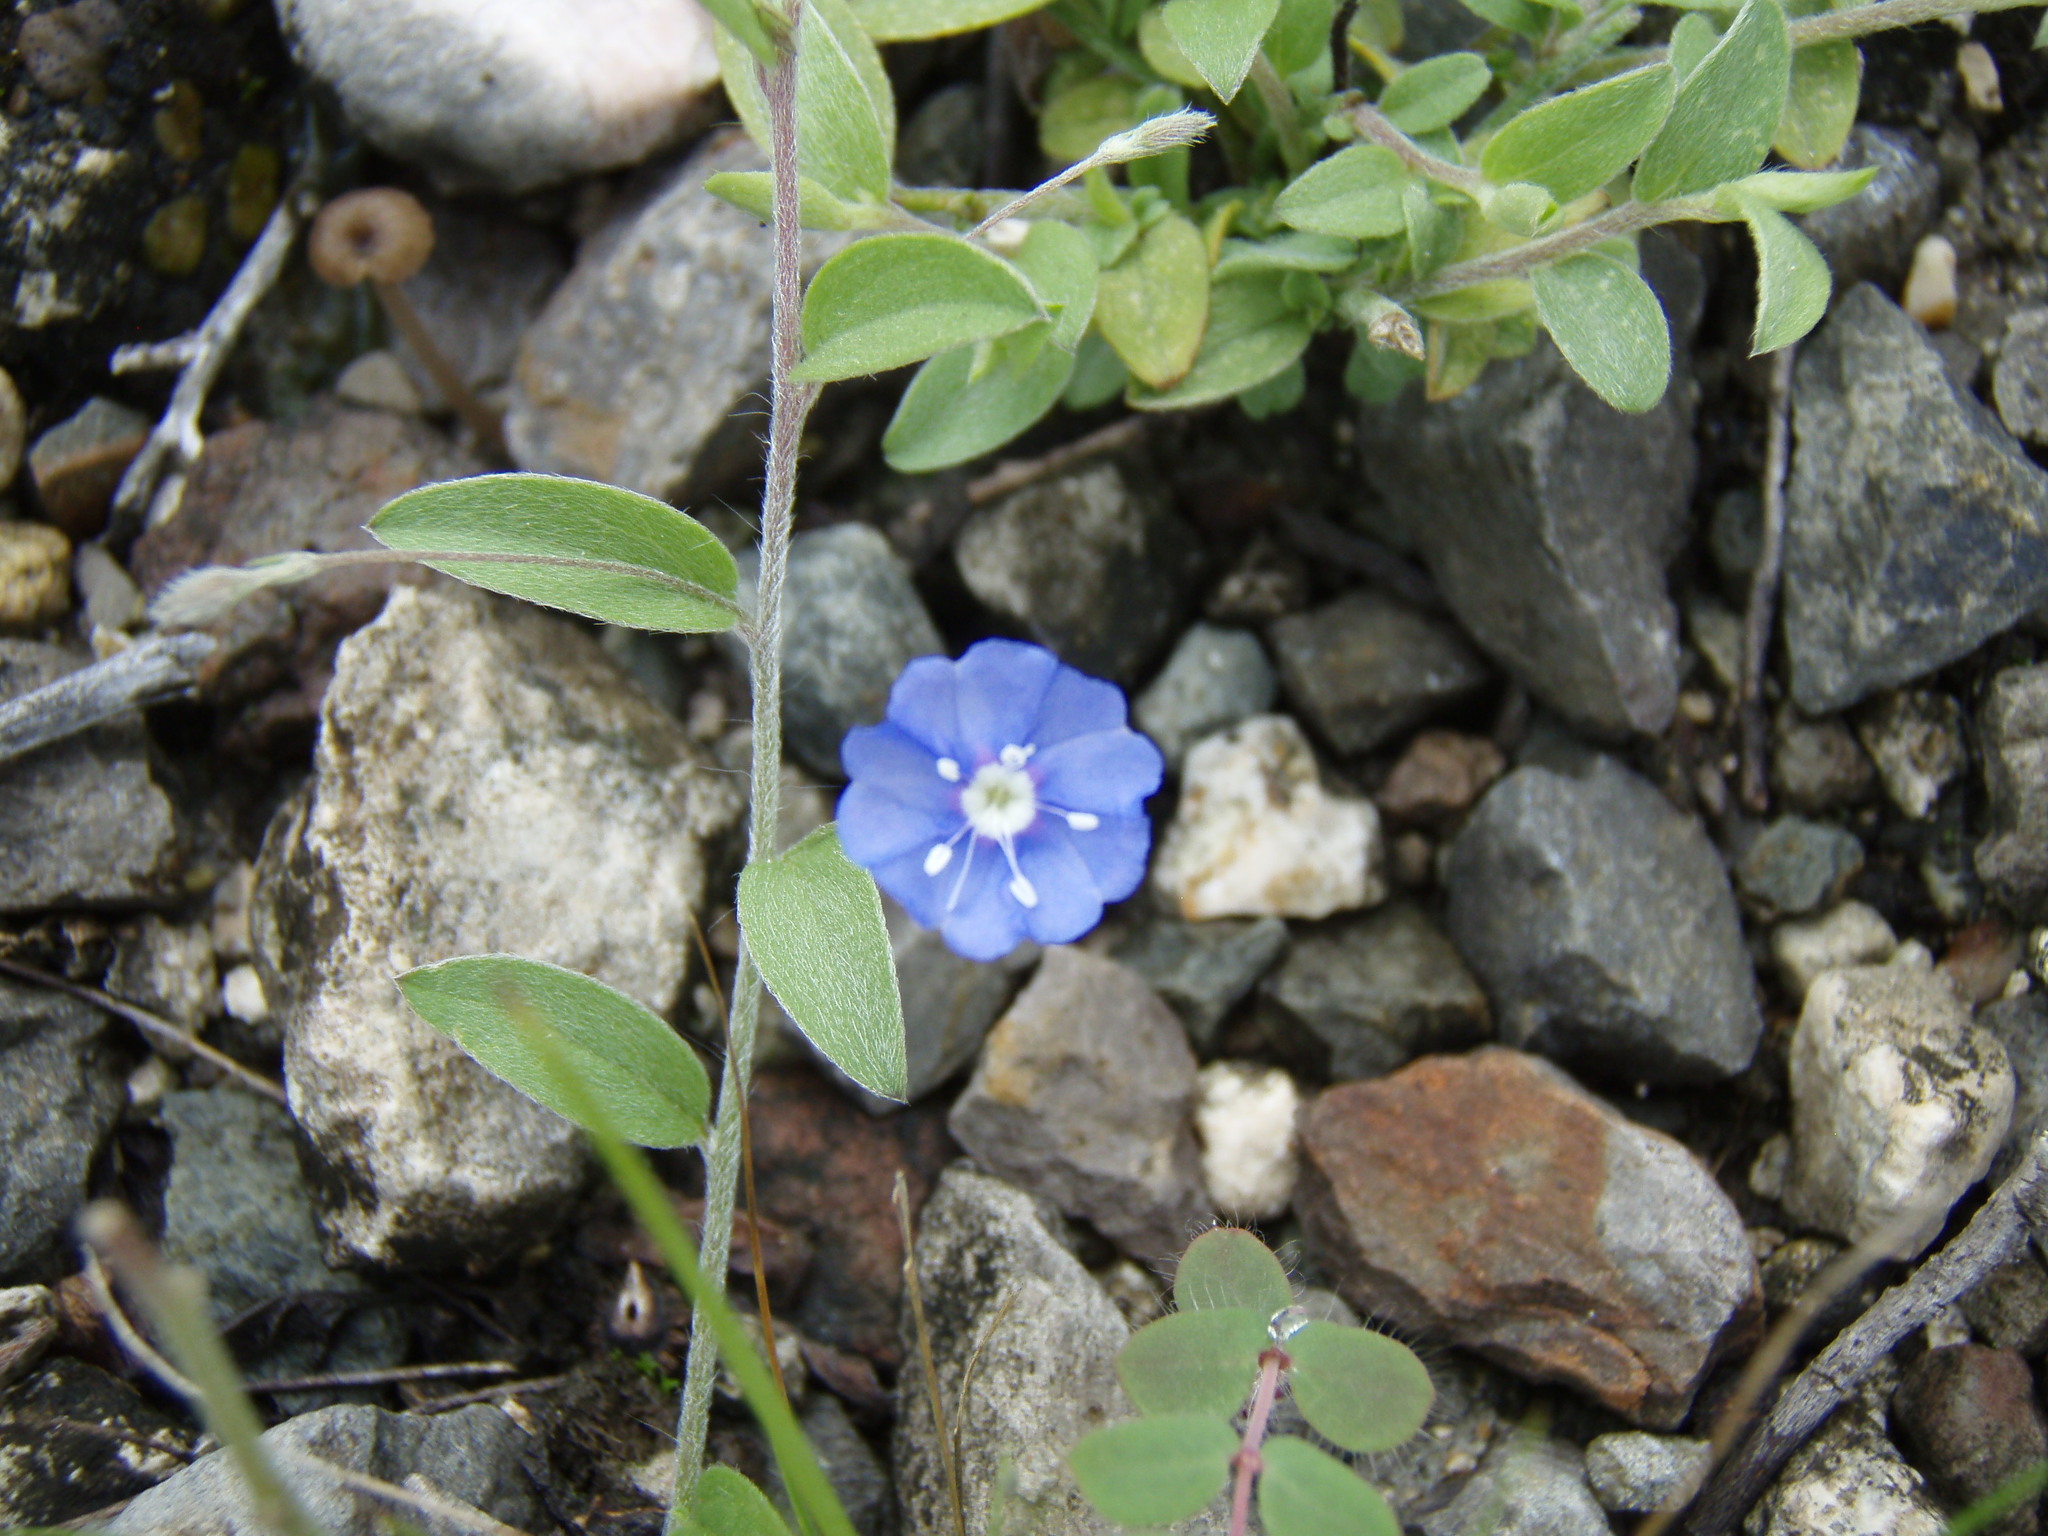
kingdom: Plantae
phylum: Tracheophyta
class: Magnoliopsida
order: Solanales
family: Convolvulaceae
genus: Evolvulus
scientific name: Evolvulus alsinoides
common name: Slender dwarf morning-glory
